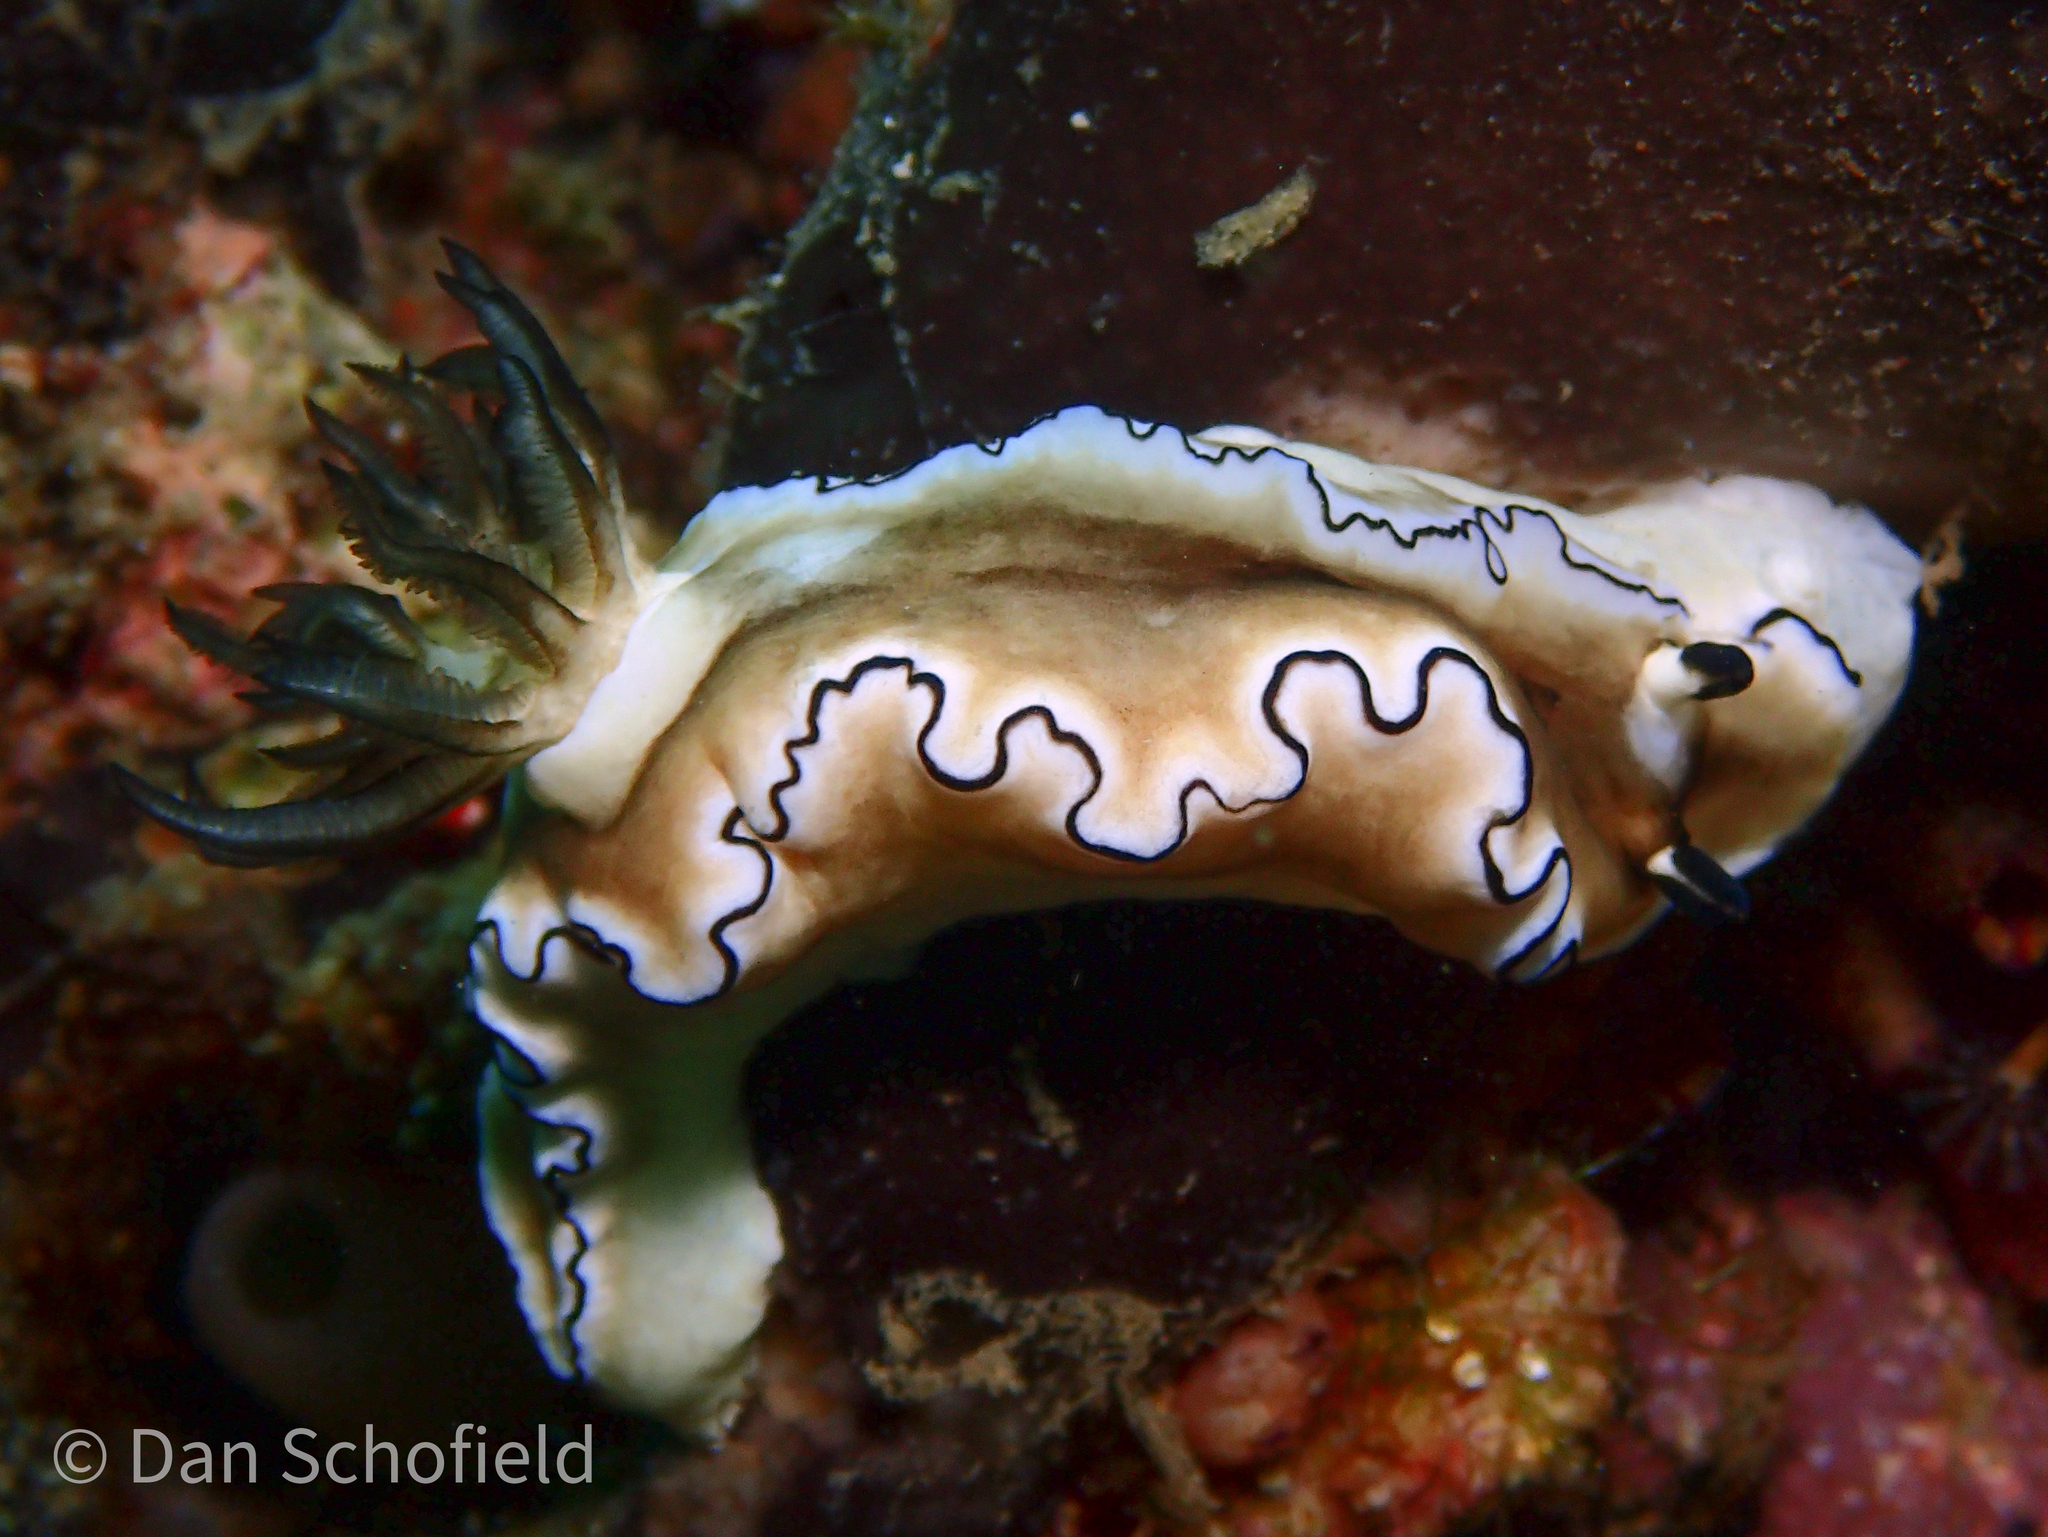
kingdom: Animalia
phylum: Mollusca
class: Gastropoda
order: Nudibranchia
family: Chromodorididae
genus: Doriprismatica
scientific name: Doriprismatica atromarginata
